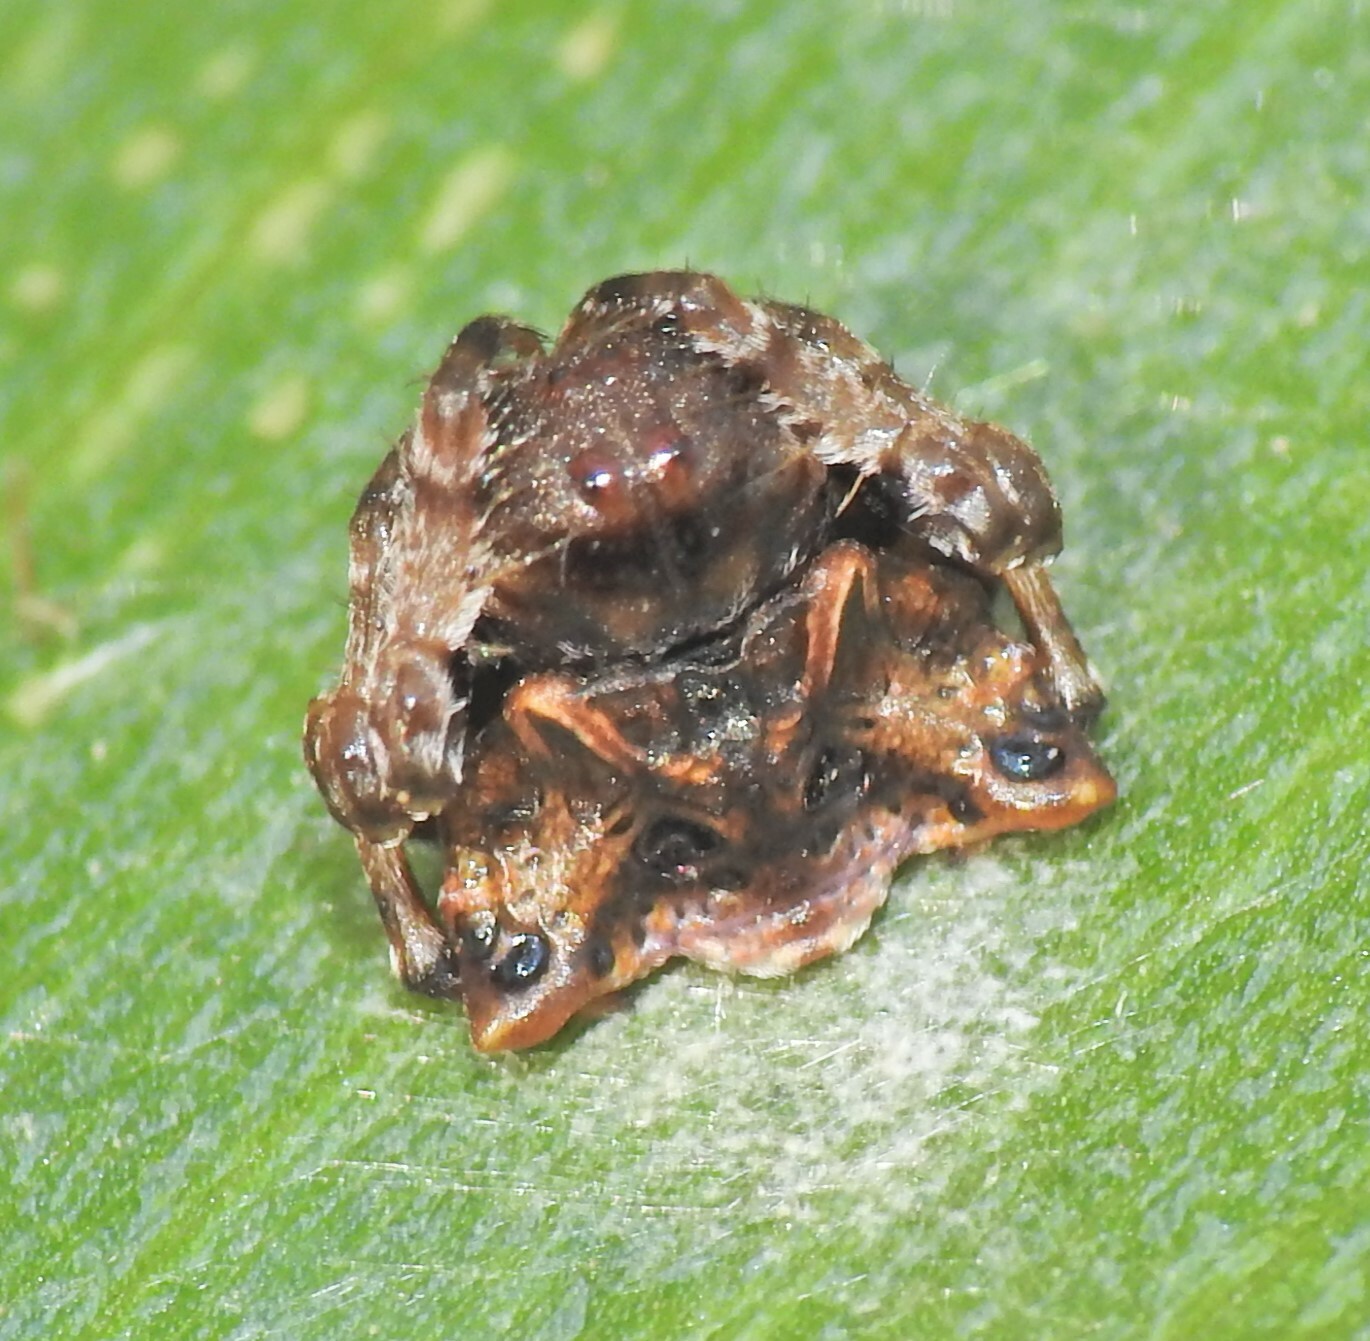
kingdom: Animalia
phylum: Arthropoda
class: Arachnida
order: Araneae
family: Arkyidae
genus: Arkys
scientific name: Arkys curtulus
